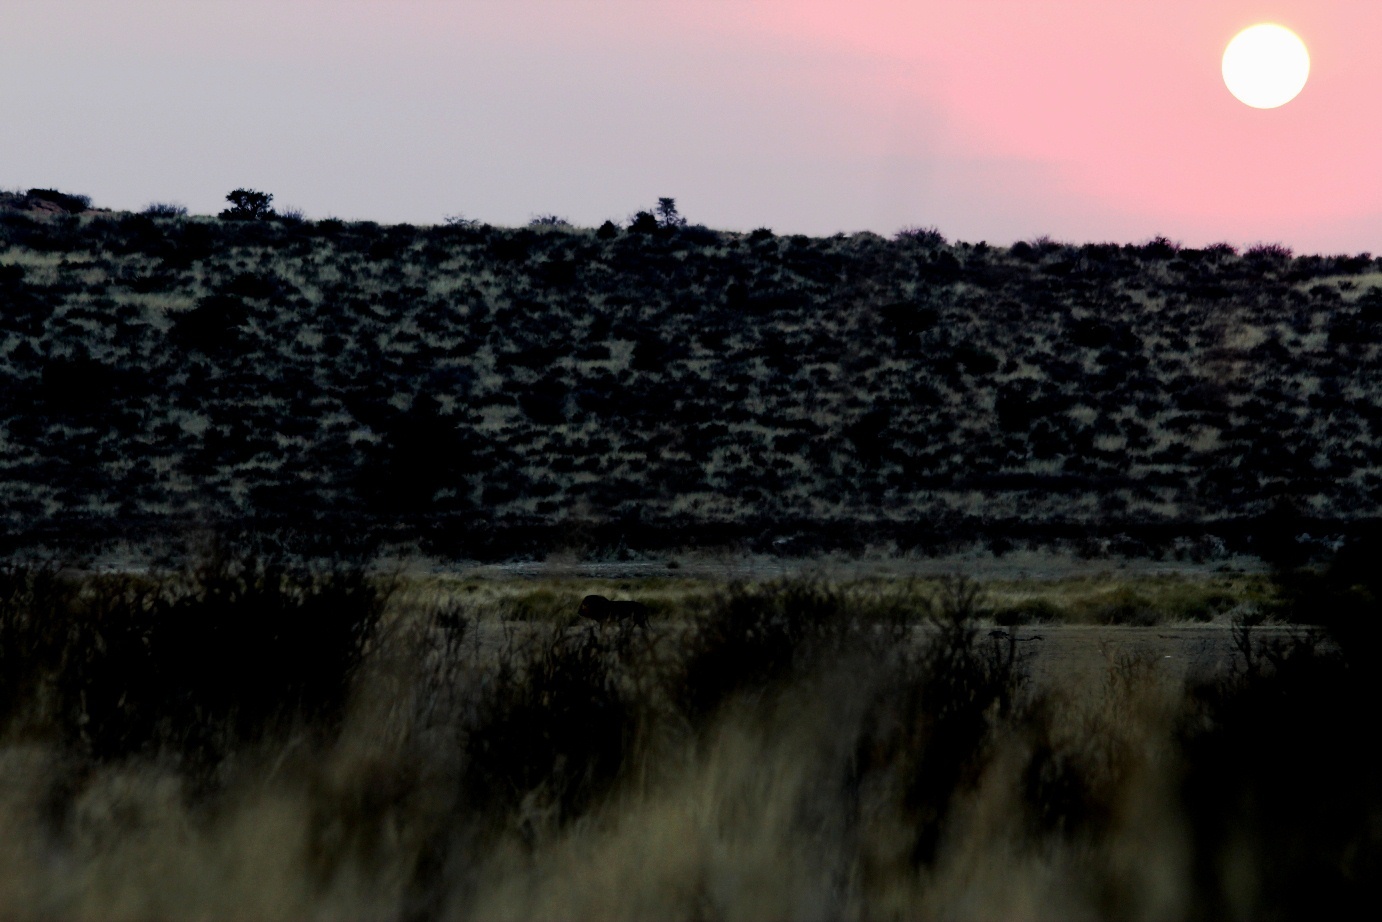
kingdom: Animalia
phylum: Chordata
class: Mammalia
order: Carnivora
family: Felidae
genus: Panthera
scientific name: Panthera leo
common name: Lion
